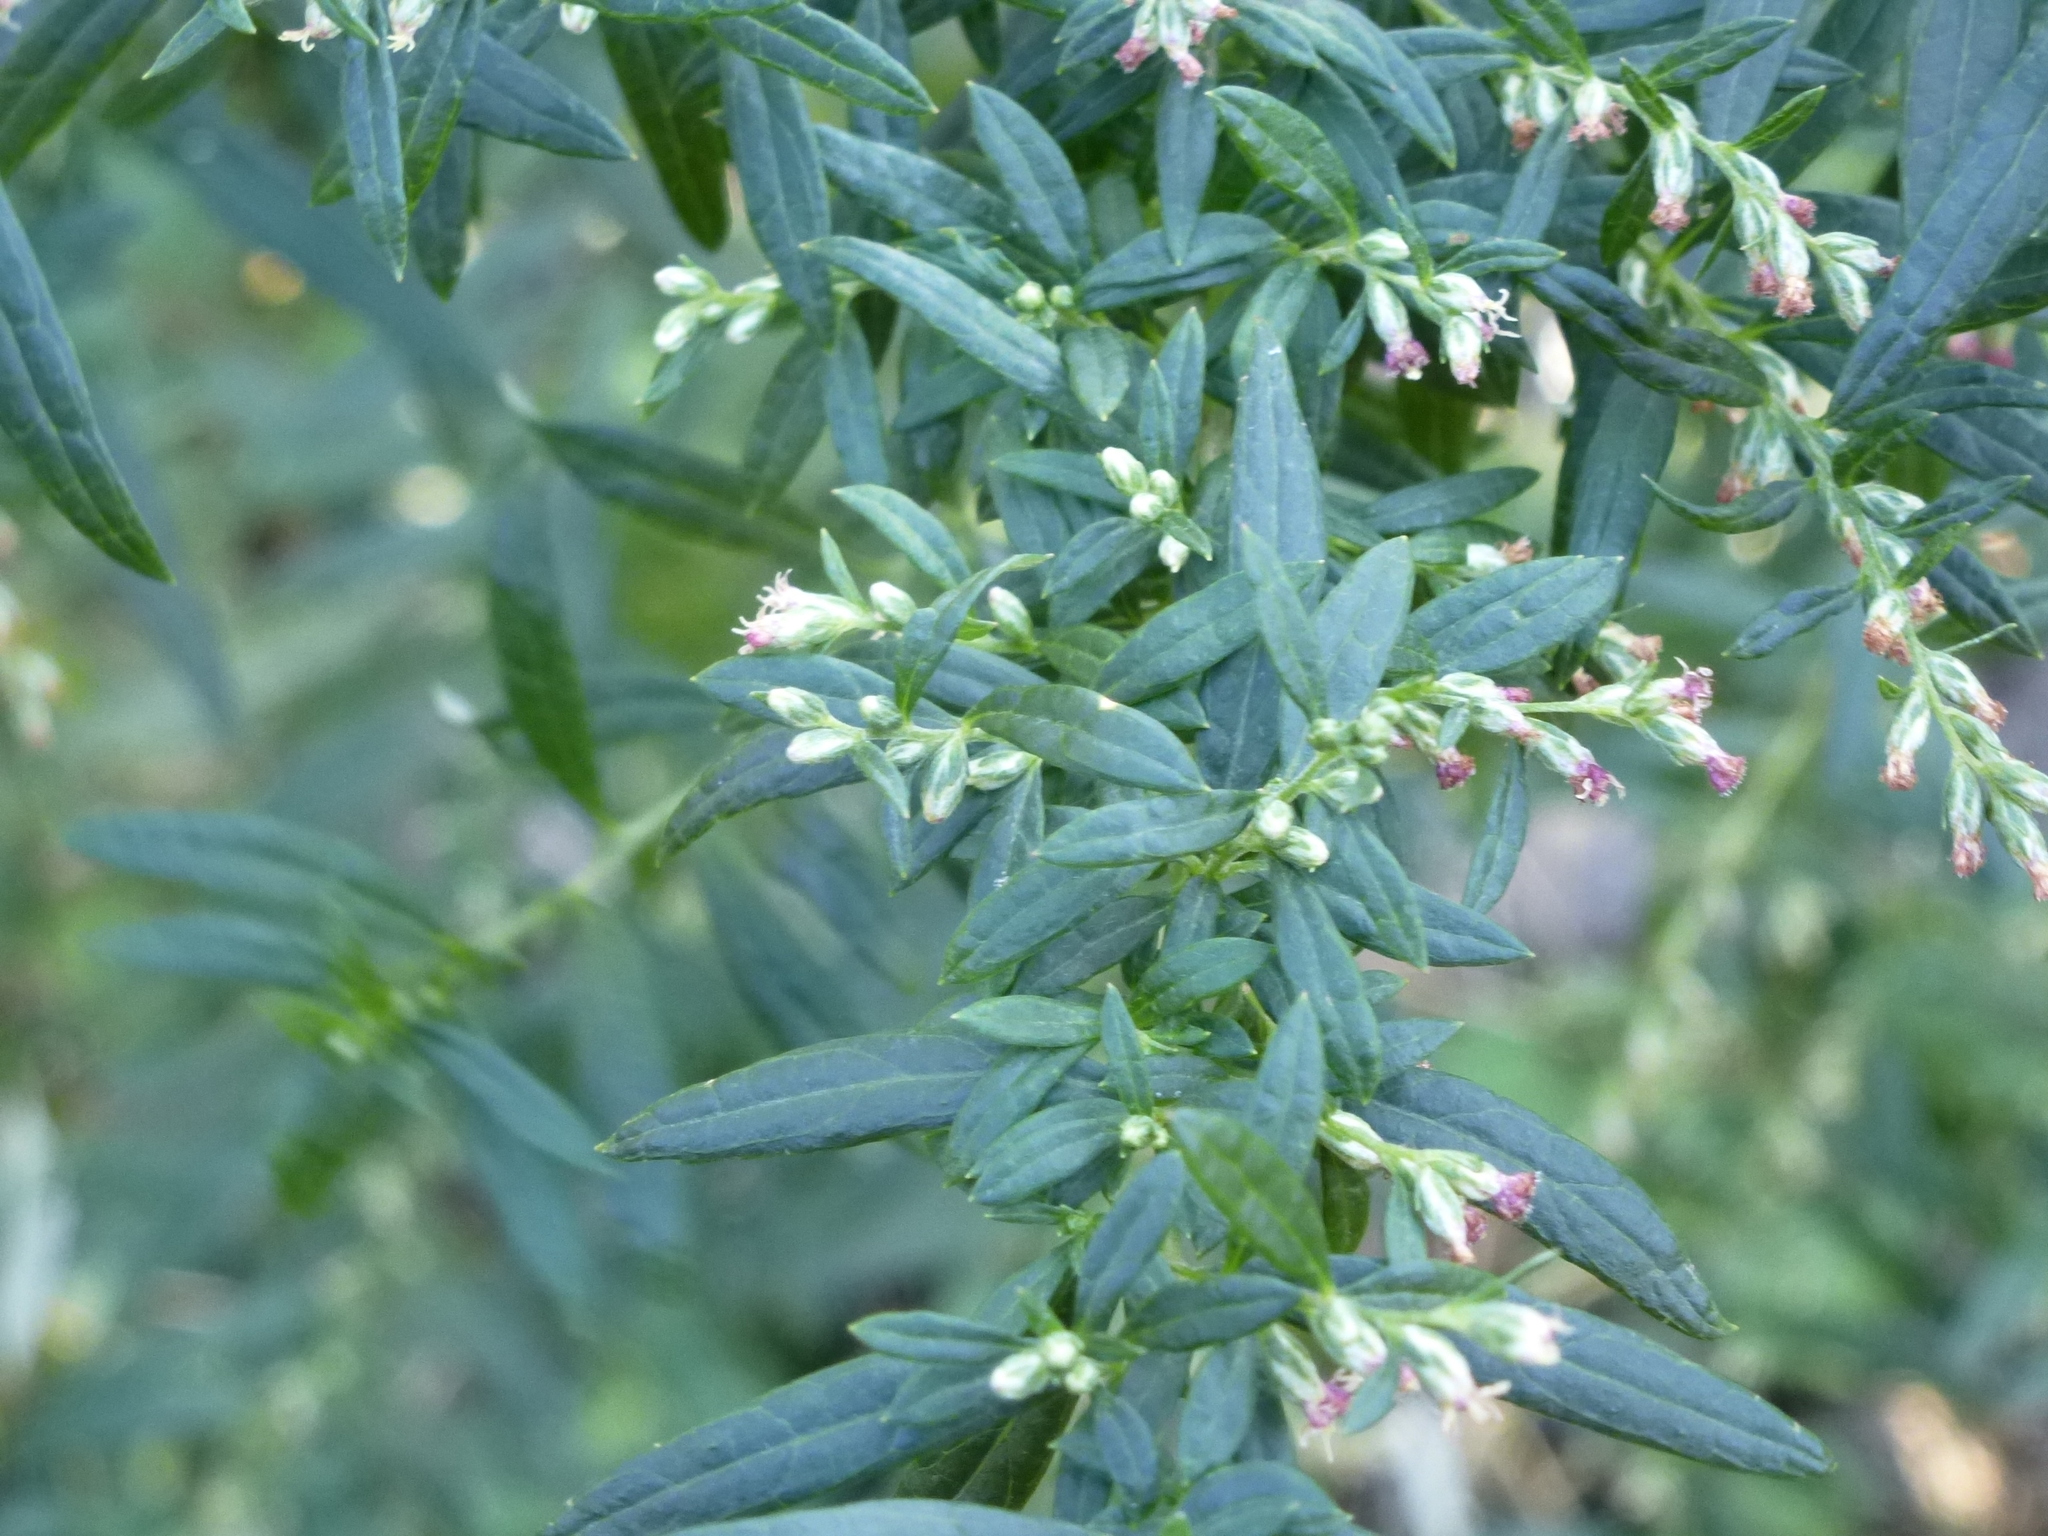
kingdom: Plantae
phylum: Tracheophyta
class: Magnoliopsida
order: Asterales
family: Asteraceae
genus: Artemisia
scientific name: Artemisia vulgaris
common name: Mugwort
